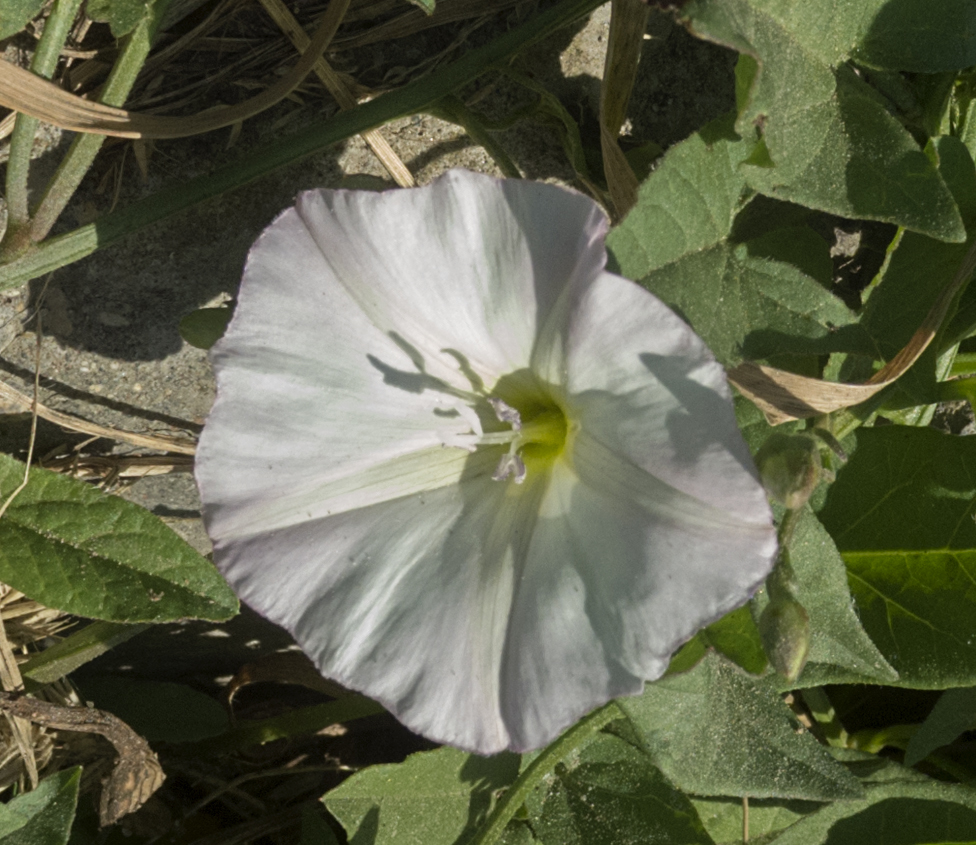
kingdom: Plantae
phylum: Tracheophyta
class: Magnoliopsida
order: Solanales
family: Convolvulaceae
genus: Convolvulus
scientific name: Convolvulus arvensis
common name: Field bindweed
